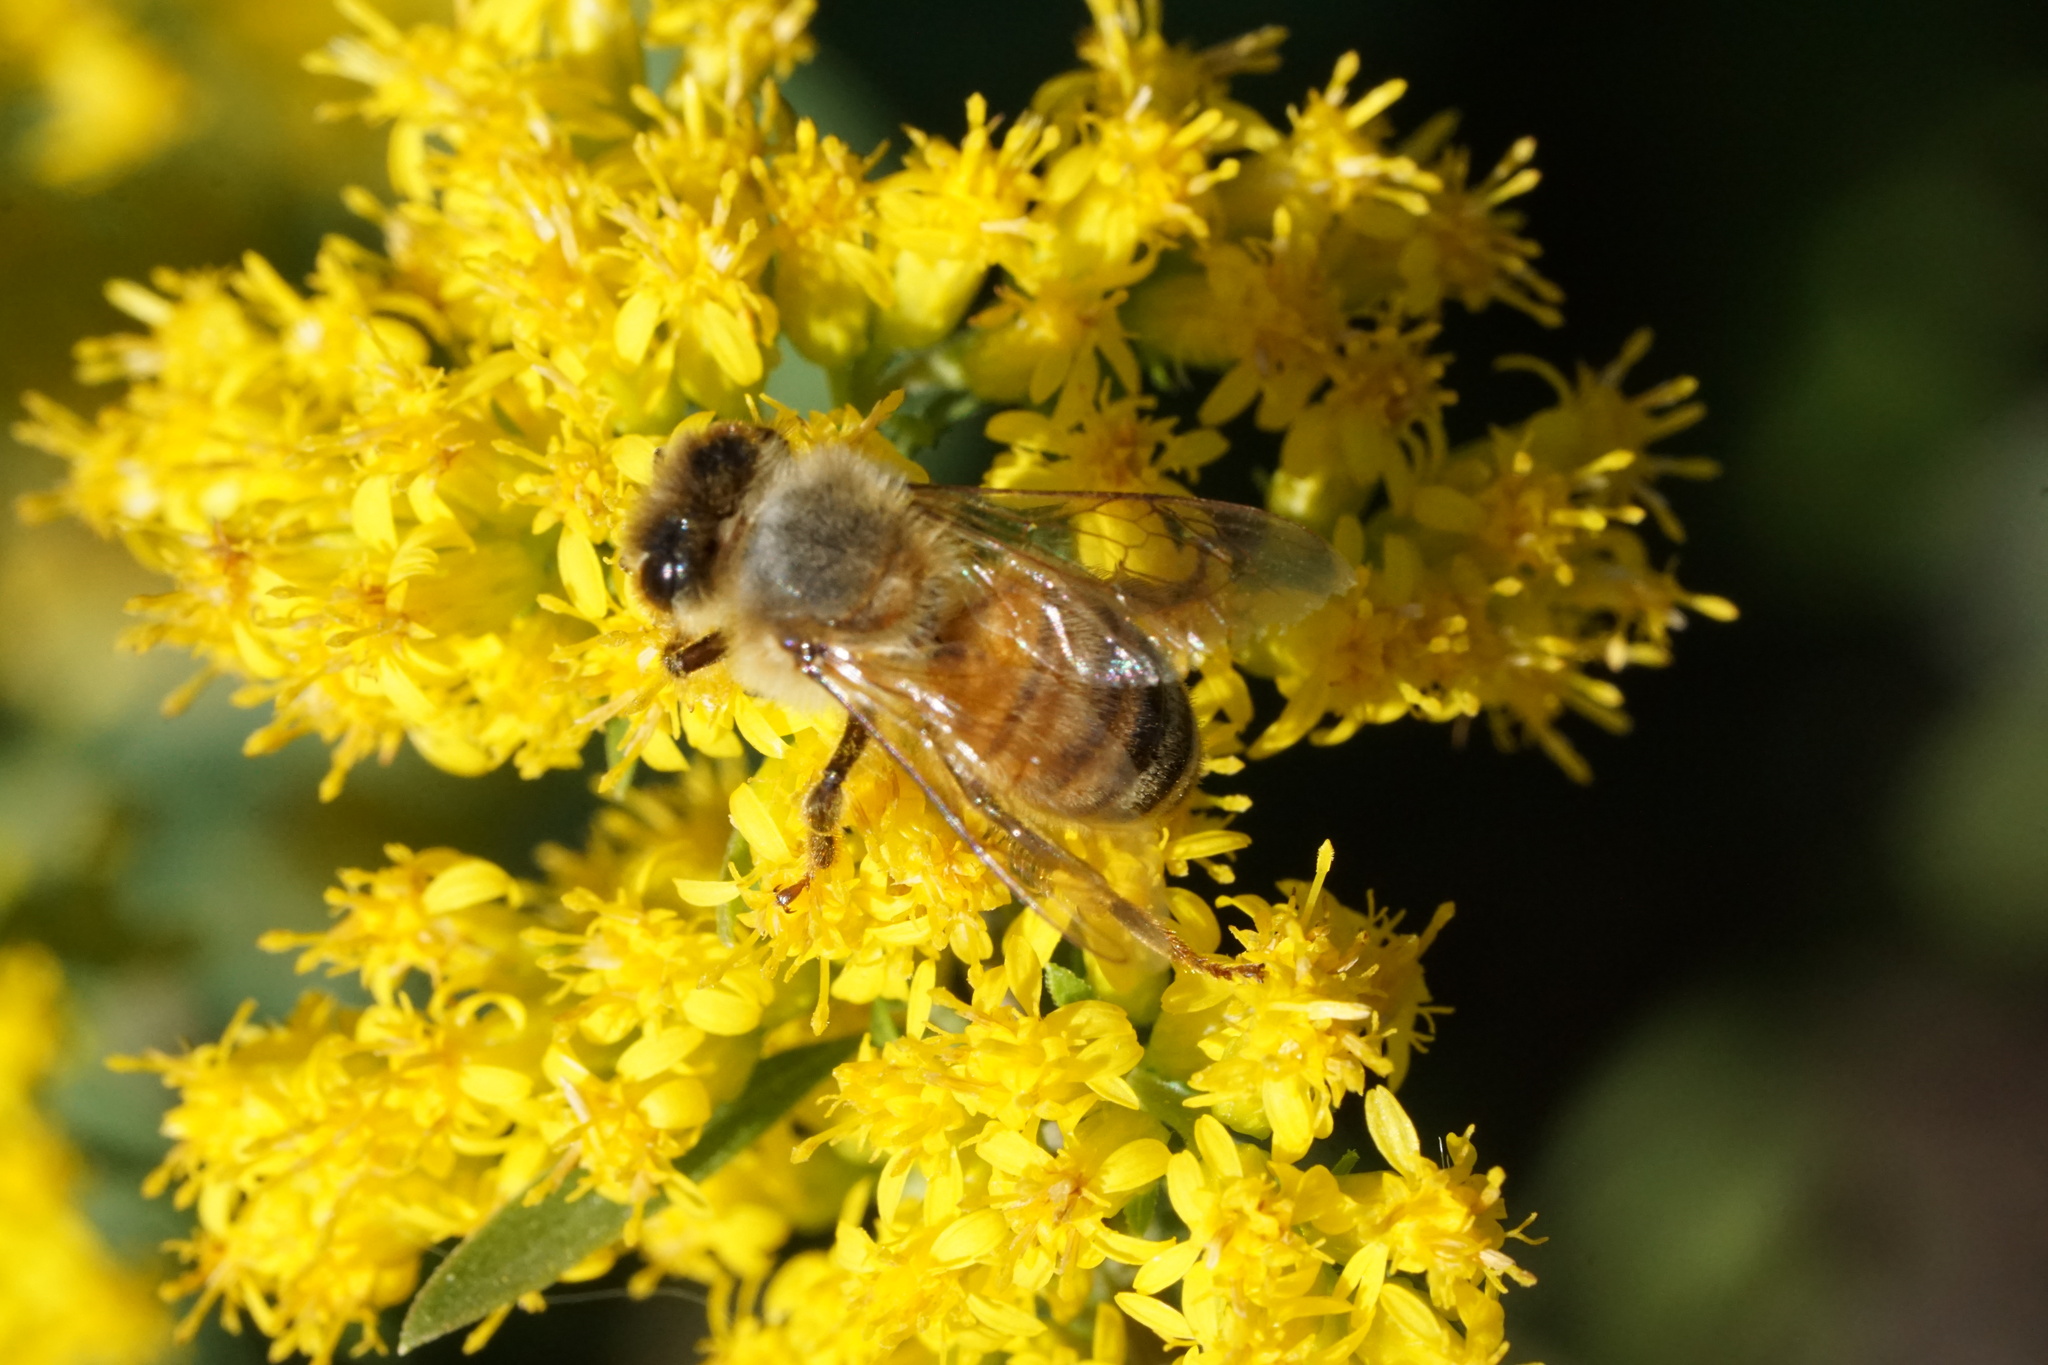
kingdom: Animalia
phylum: Arthropoda
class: Insecta
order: Hymenoptera
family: Apidae
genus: Apis
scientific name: Apis mellifera
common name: Honey bee
